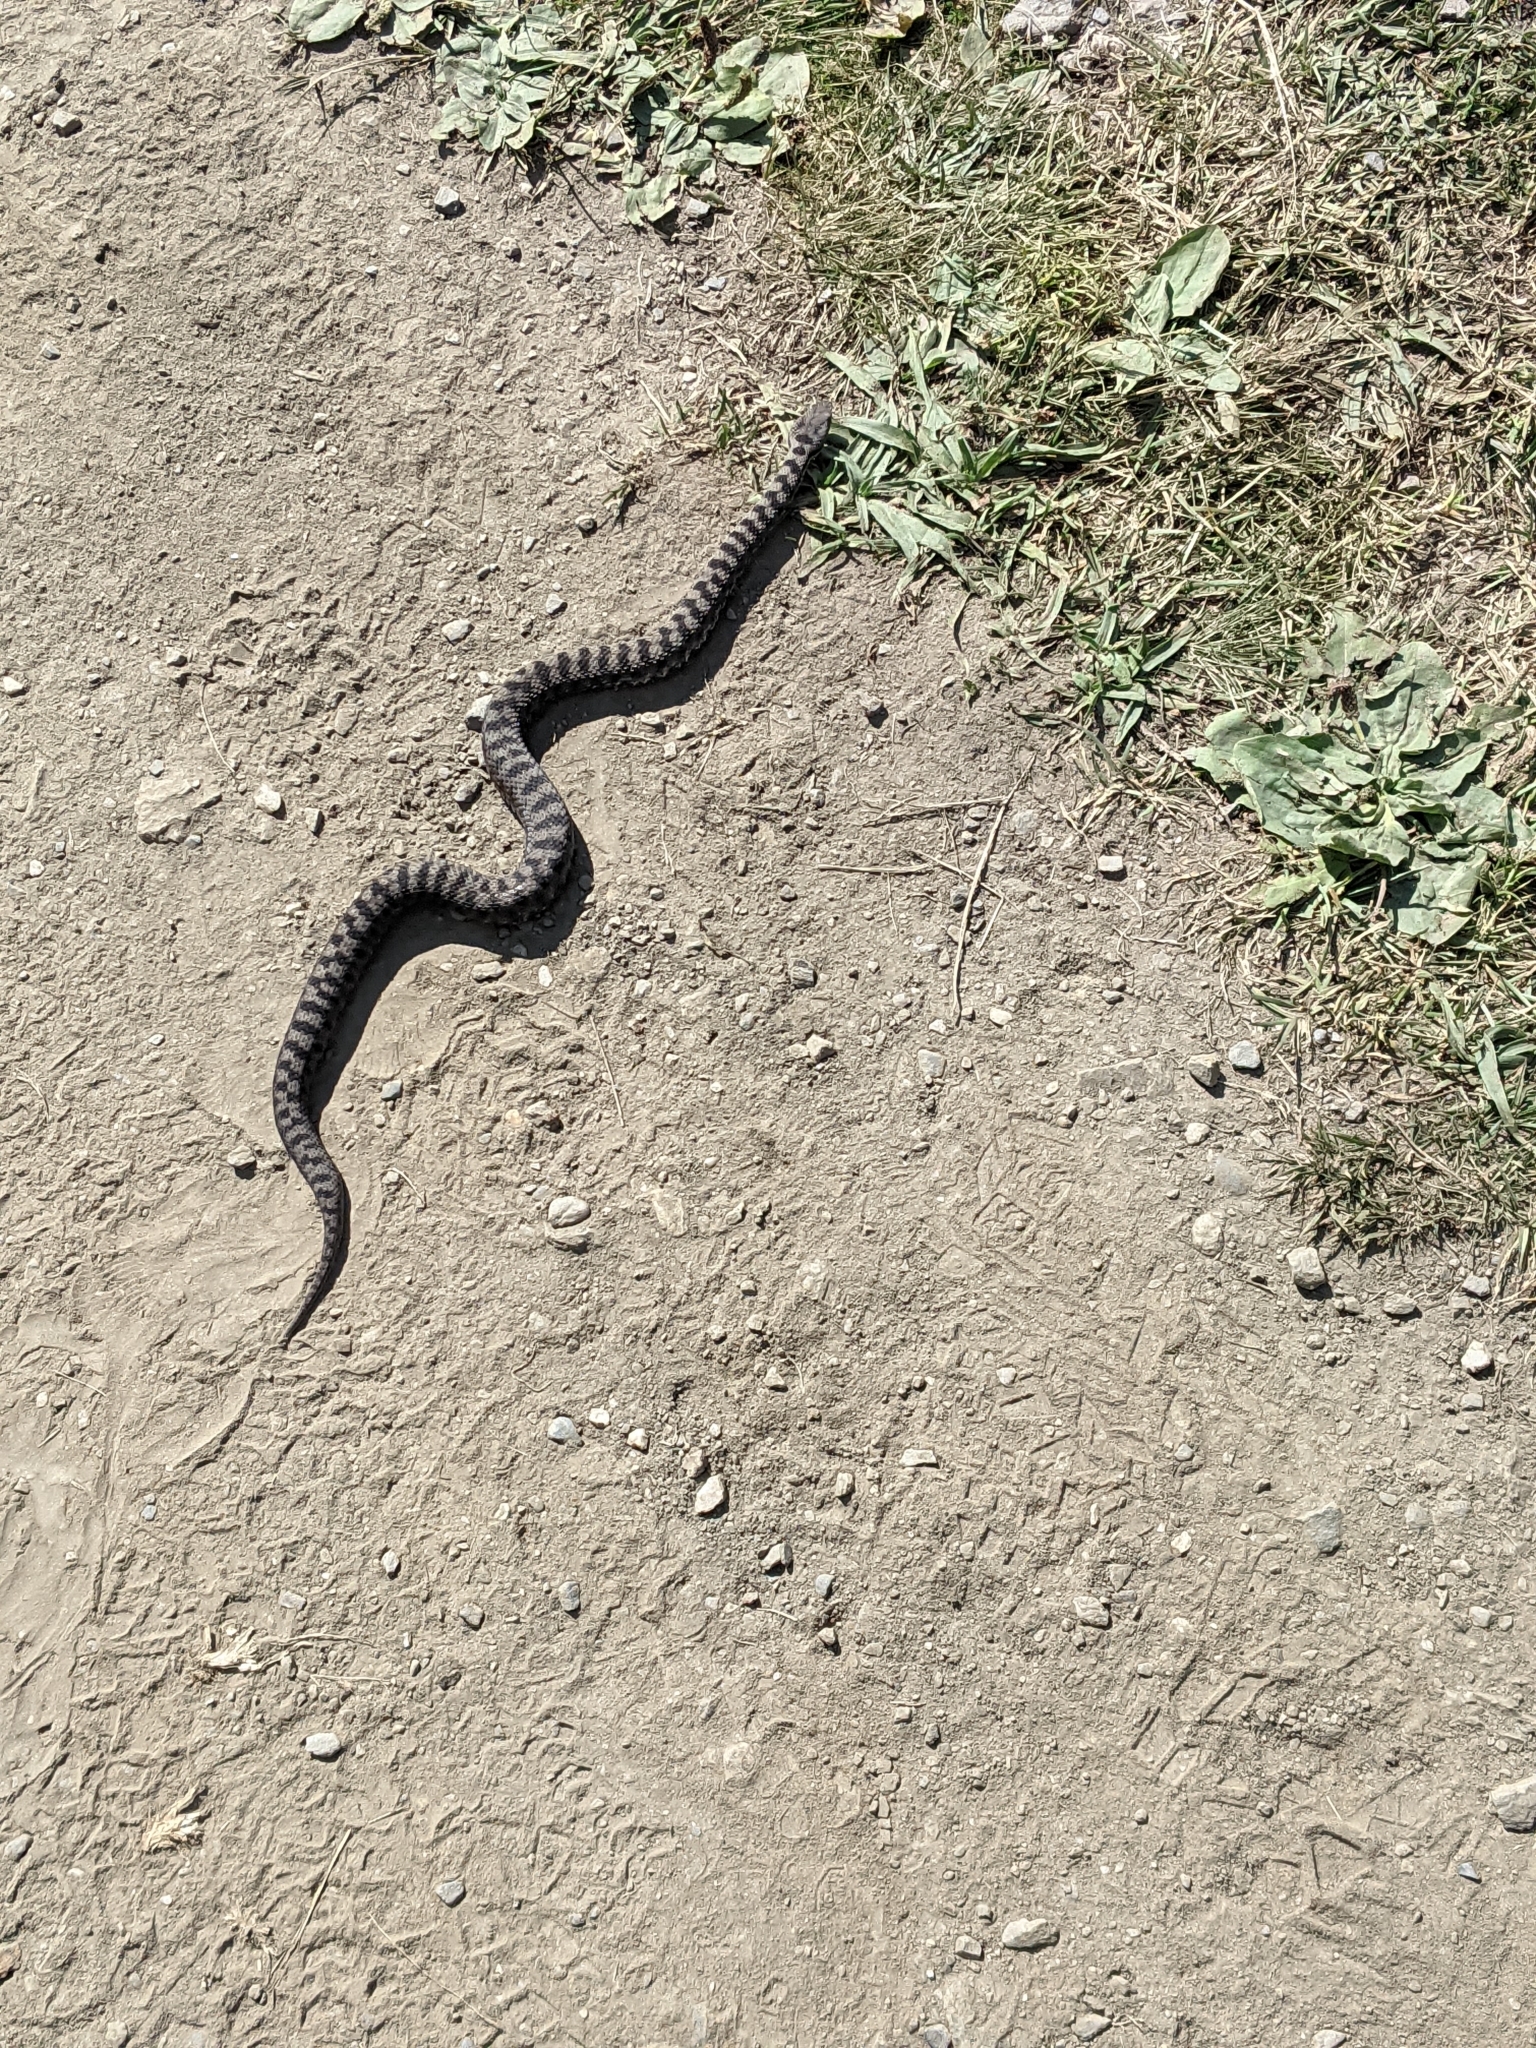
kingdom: Animalia
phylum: Chordata
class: Squamata
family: Viperidae
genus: Vipera
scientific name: Vipera aspis
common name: Asp viper
